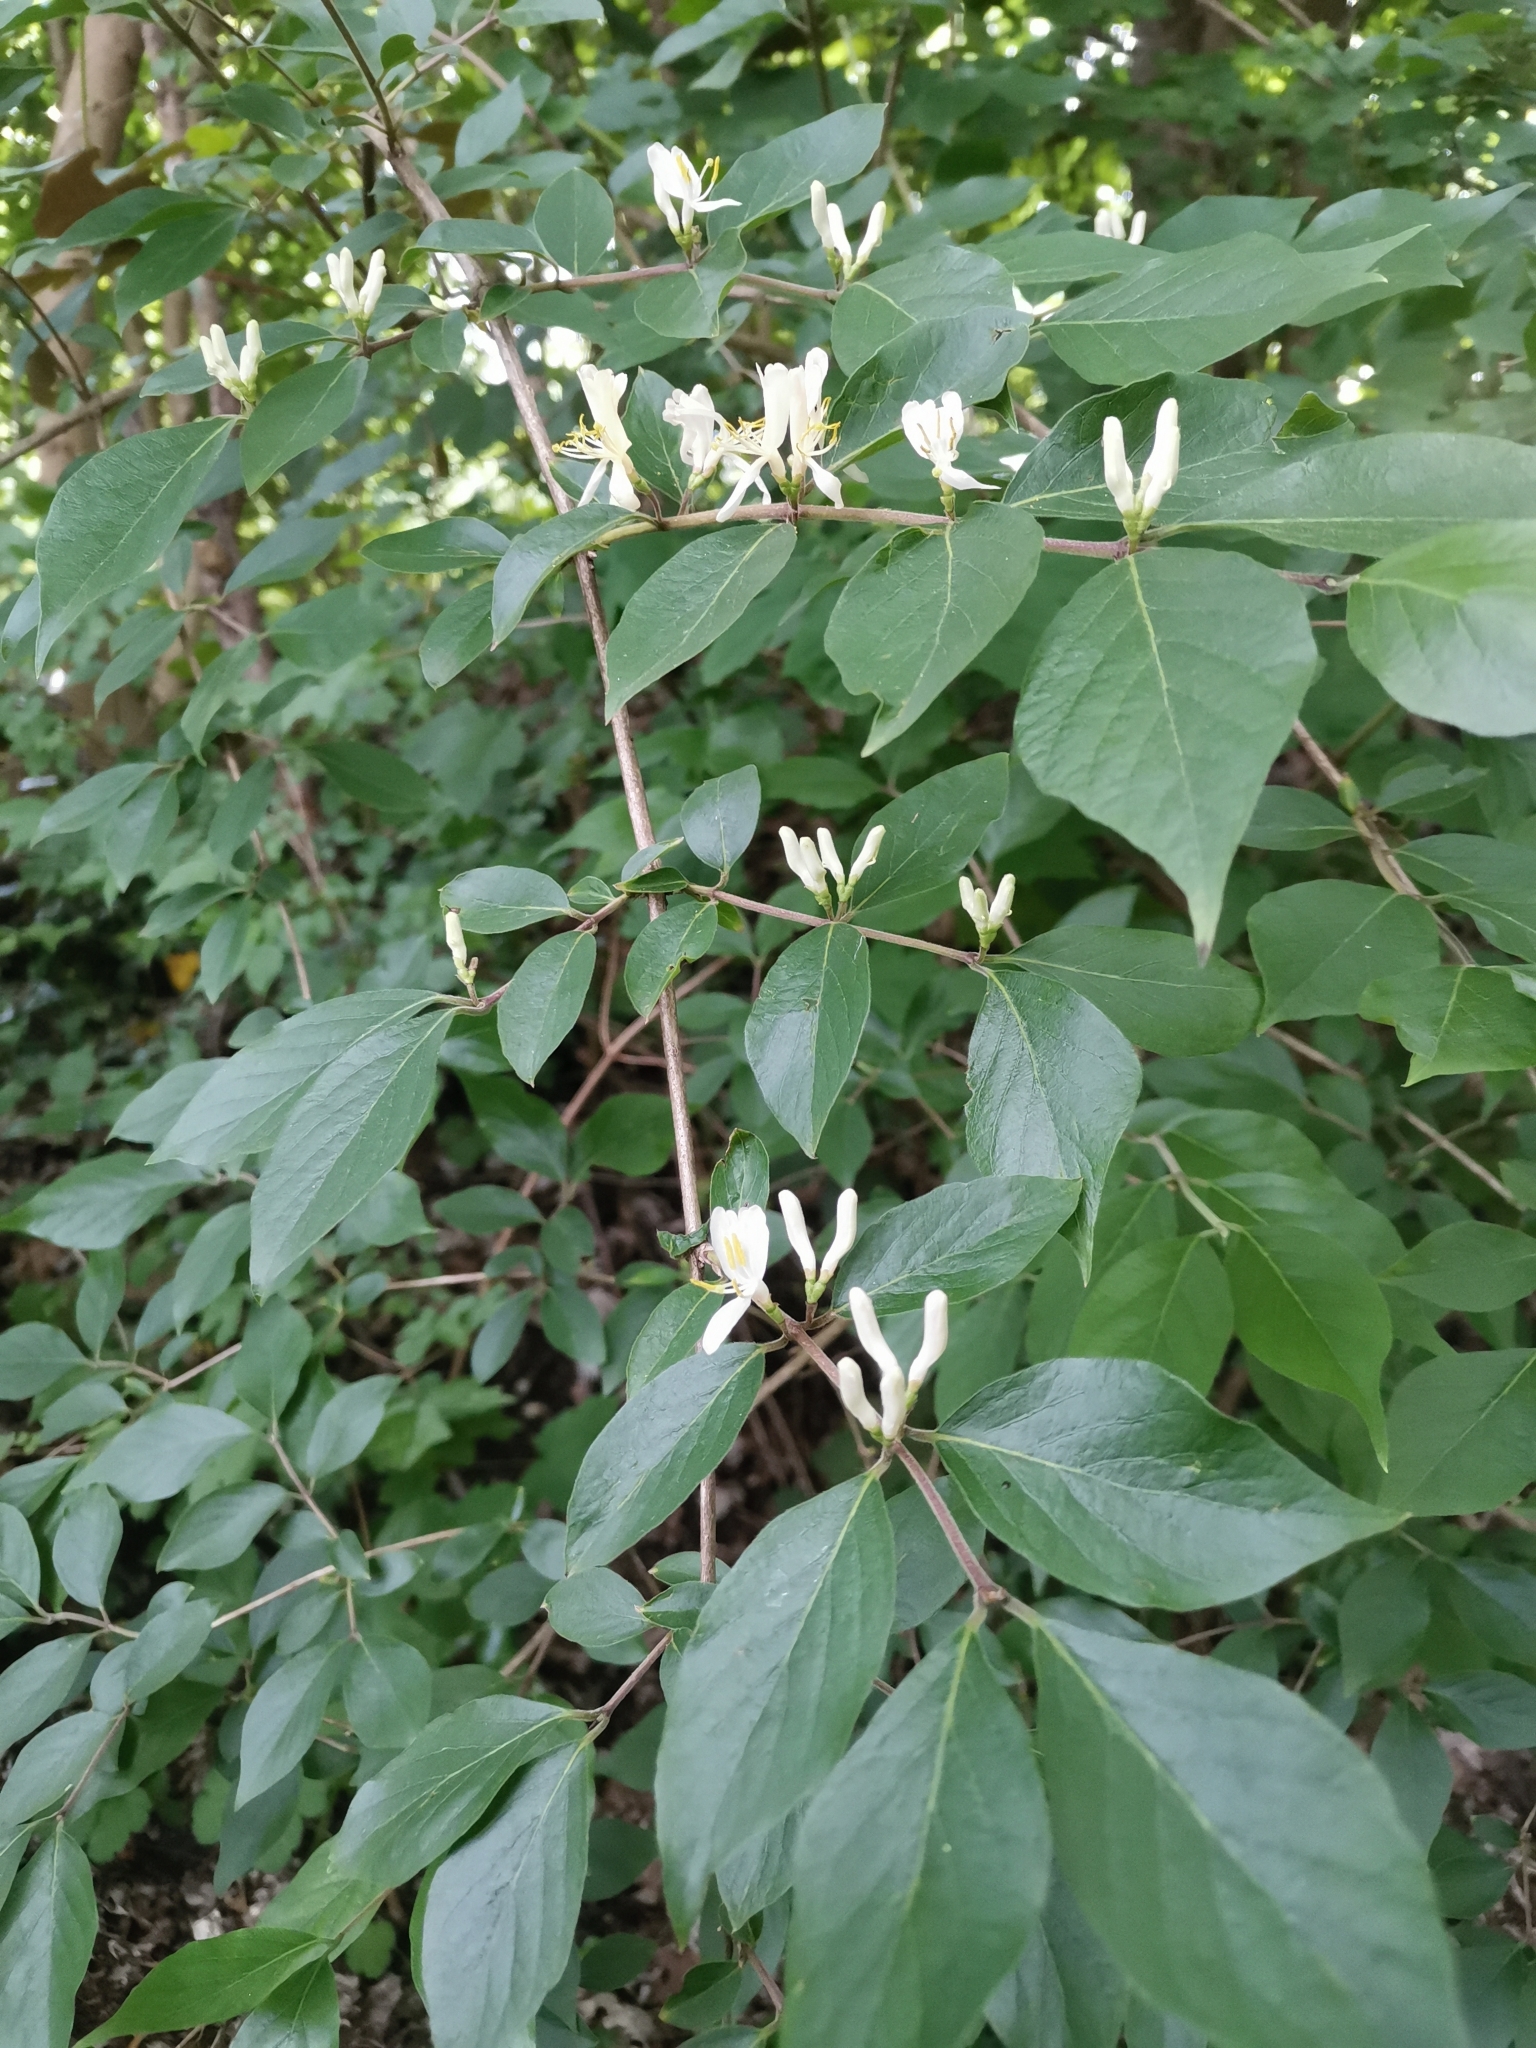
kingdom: Plantae
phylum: Tracheophyta
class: Magnoliopsida
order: Dipsacales
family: Caprifoliaceae
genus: Lonicera
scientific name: Lonicera maackii
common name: Amur honeysuckle
